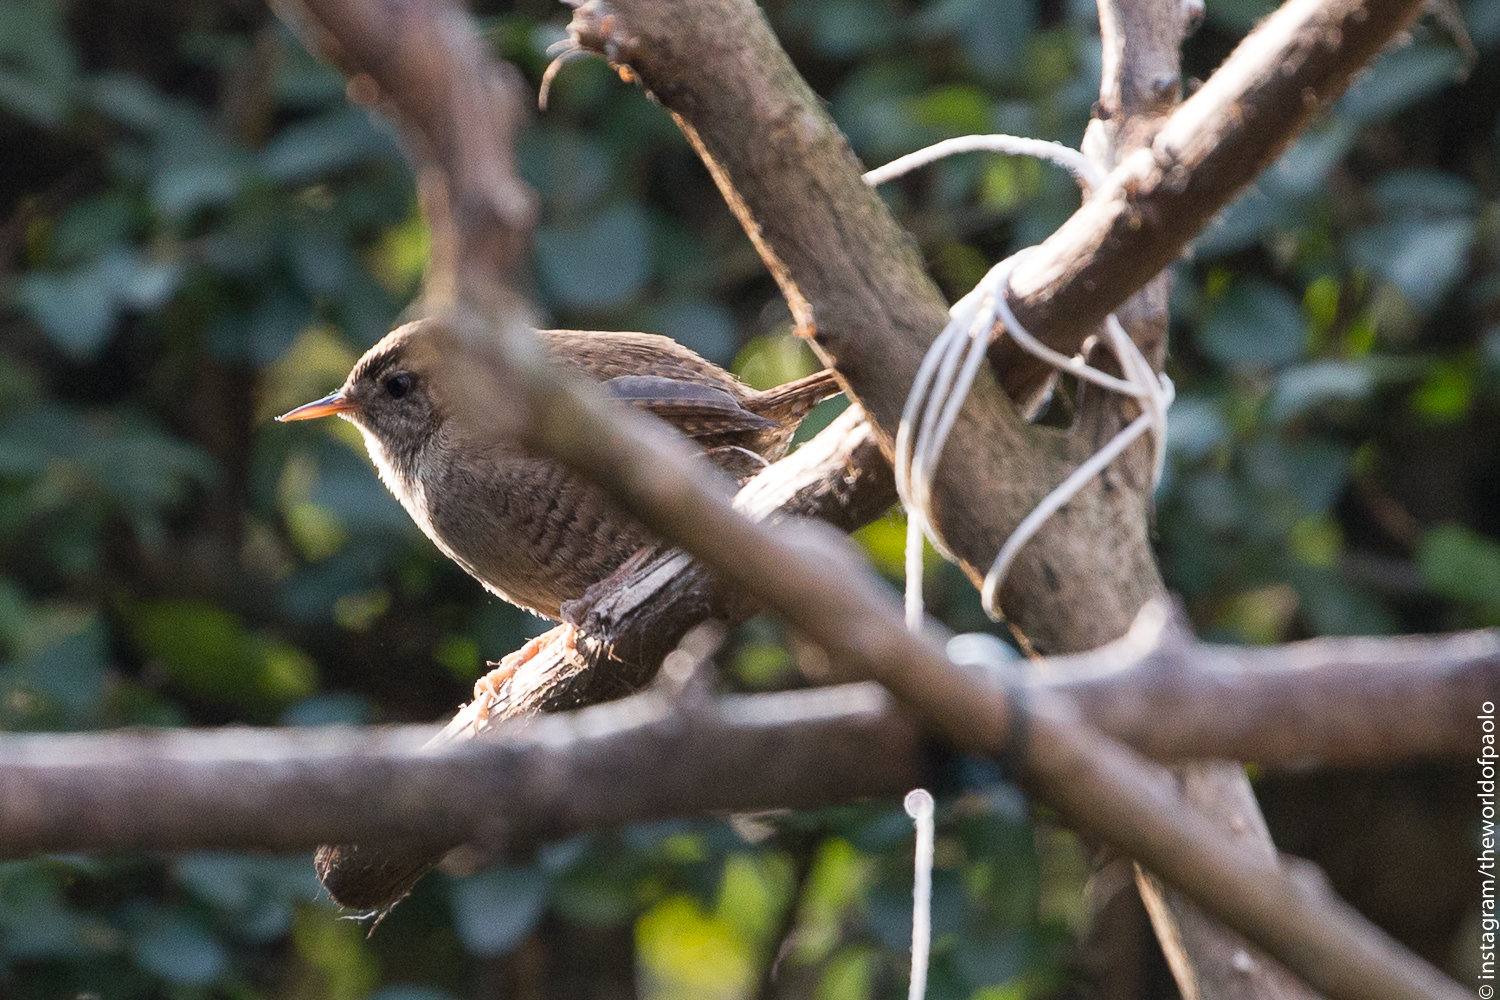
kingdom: Animalia
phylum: Chordata
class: Aves
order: Passeriformes
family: Troglodytidae
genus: Troglodytes
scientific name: Troglodytes troglodytes
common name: Eurasian wren
